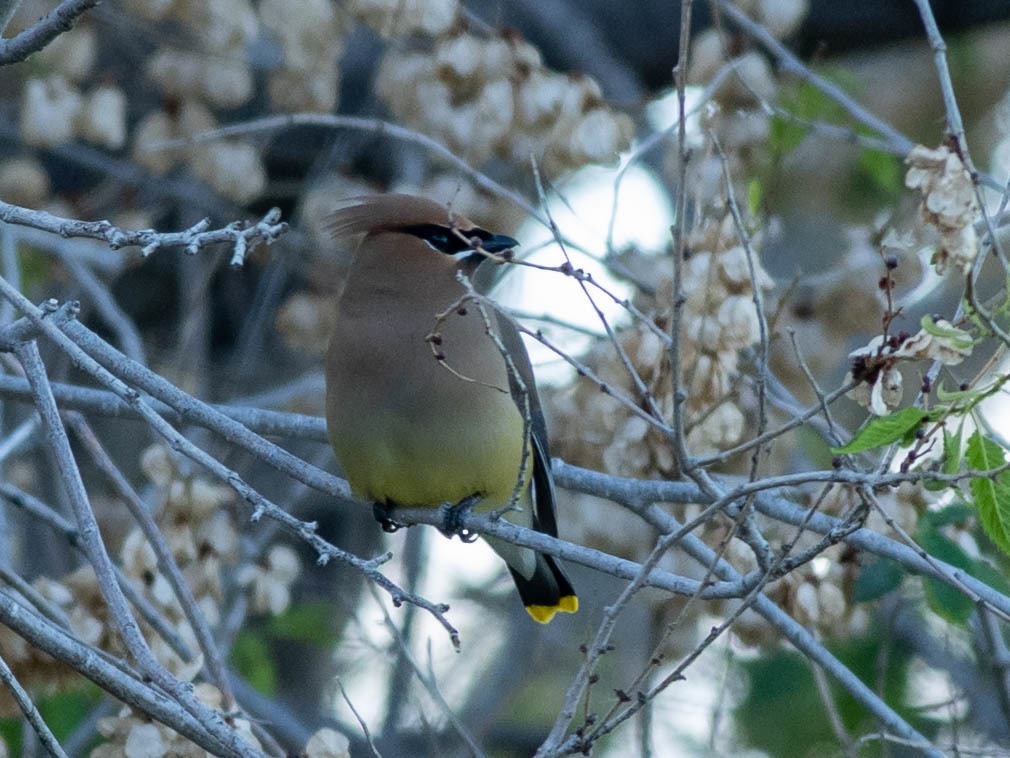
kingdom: Animalia
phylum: Chordata
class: Aves
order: Passeriformes
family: Bombycillidae
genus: Bombycilla
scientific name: Bombycilla cedrorum
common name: Cedar waxwing
